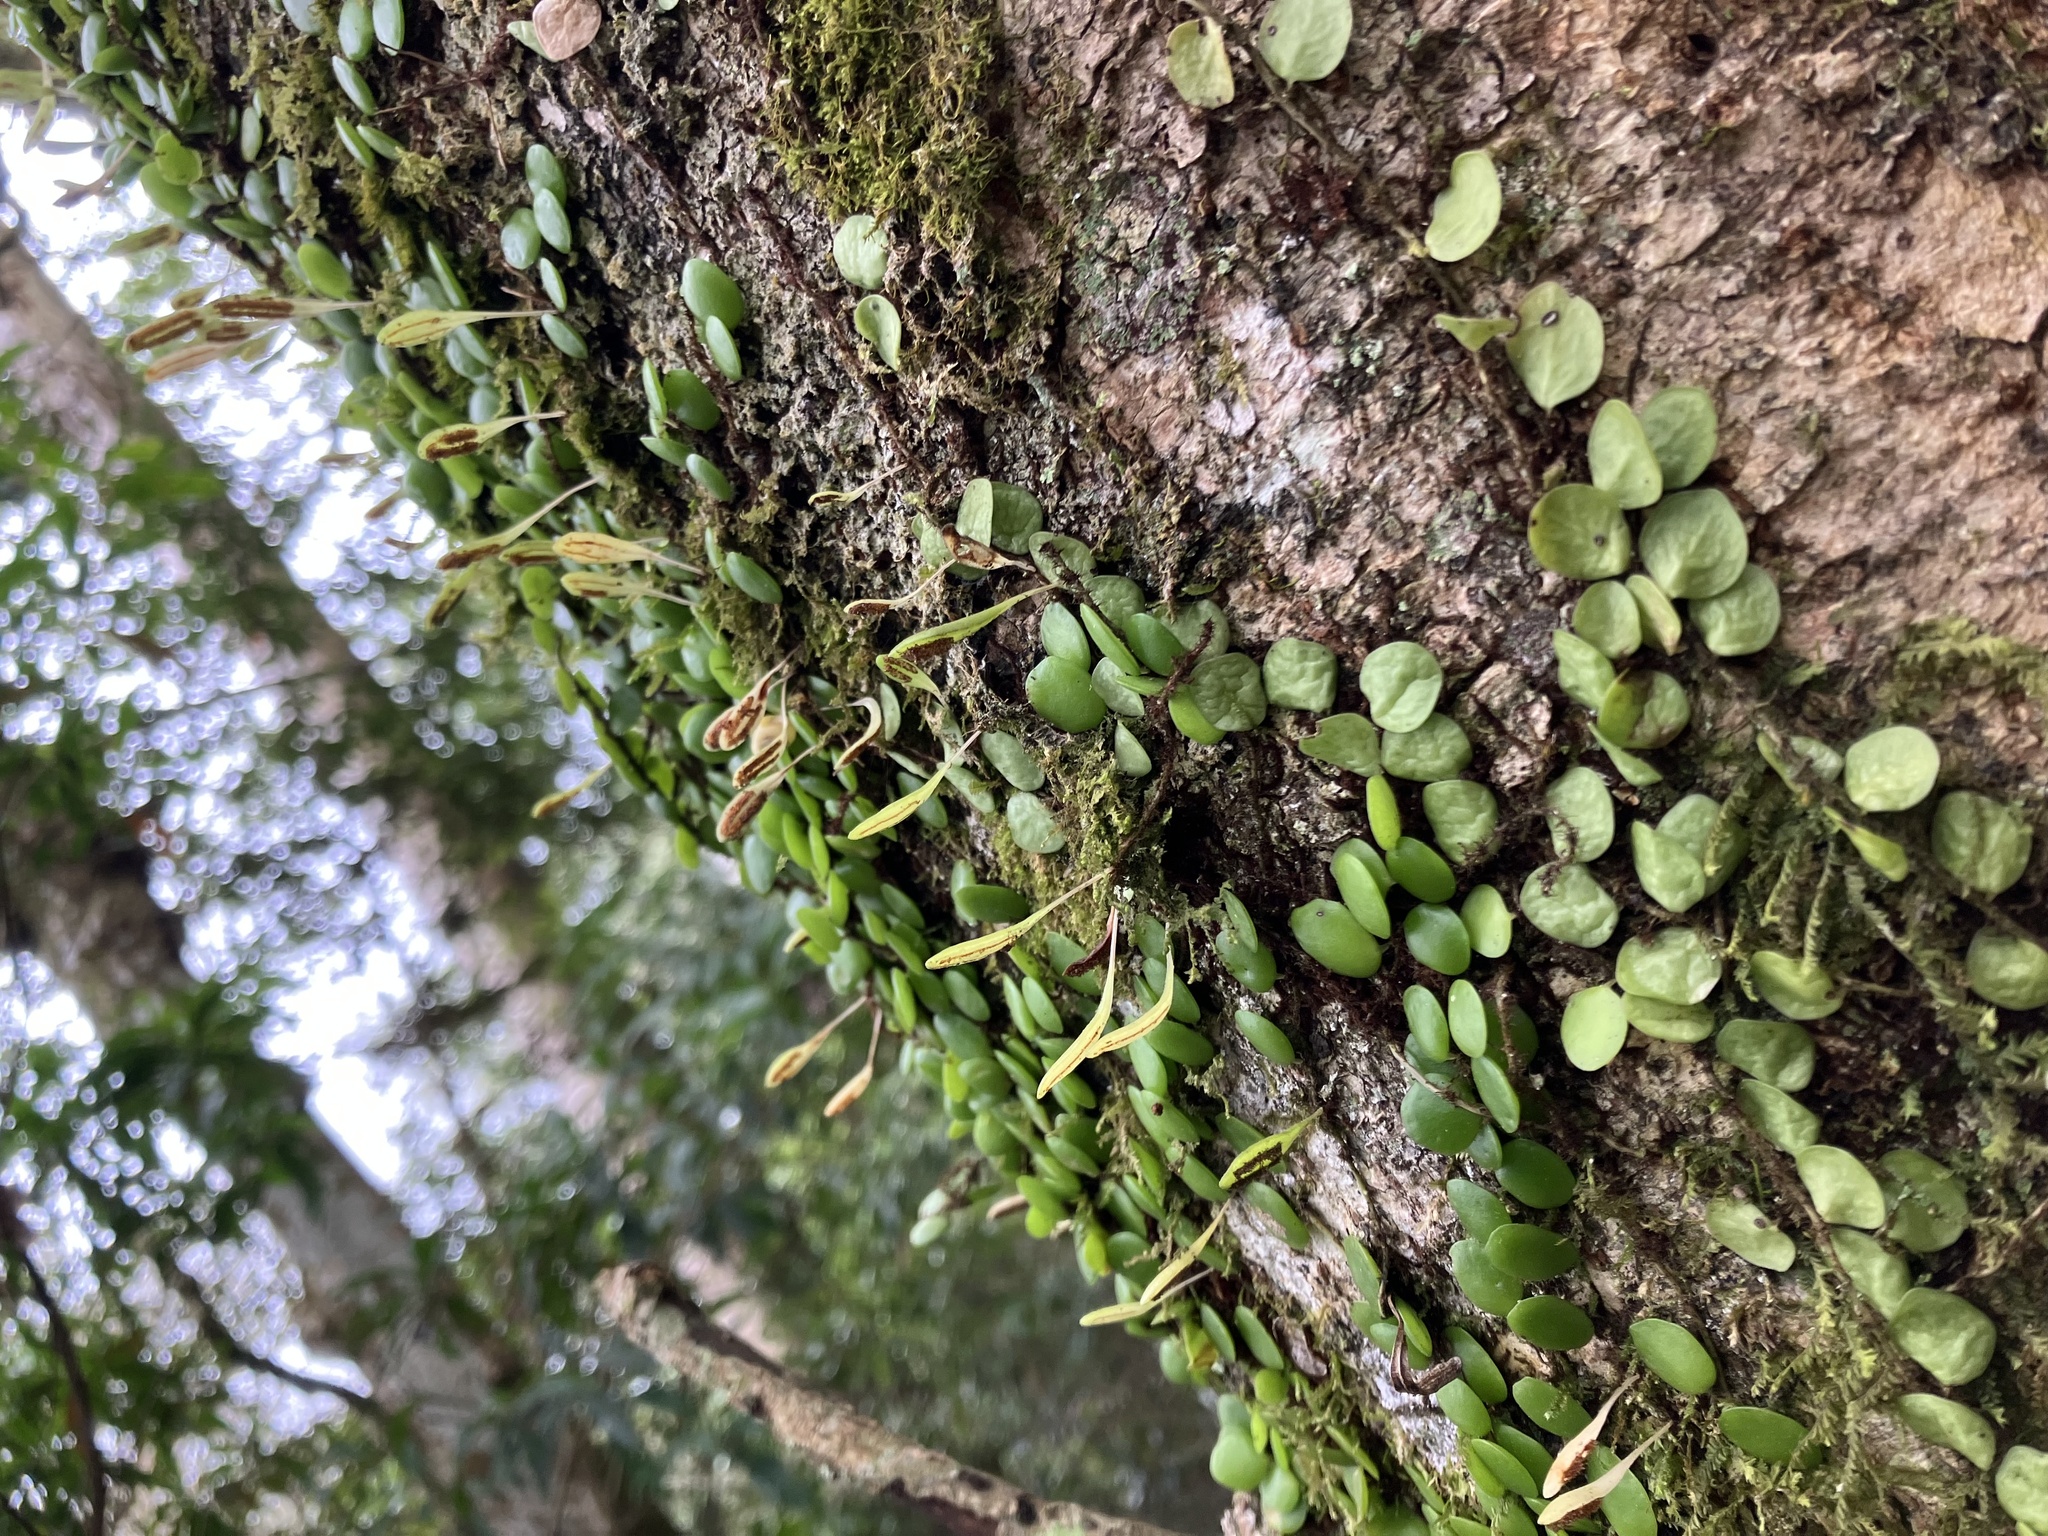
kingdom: Plantae
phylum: Tracheophyta
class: Polypodiopsida
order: Polypodiales
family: Polypodiaceae
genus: Lepisorus
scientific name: Lepisorus microphyllus
